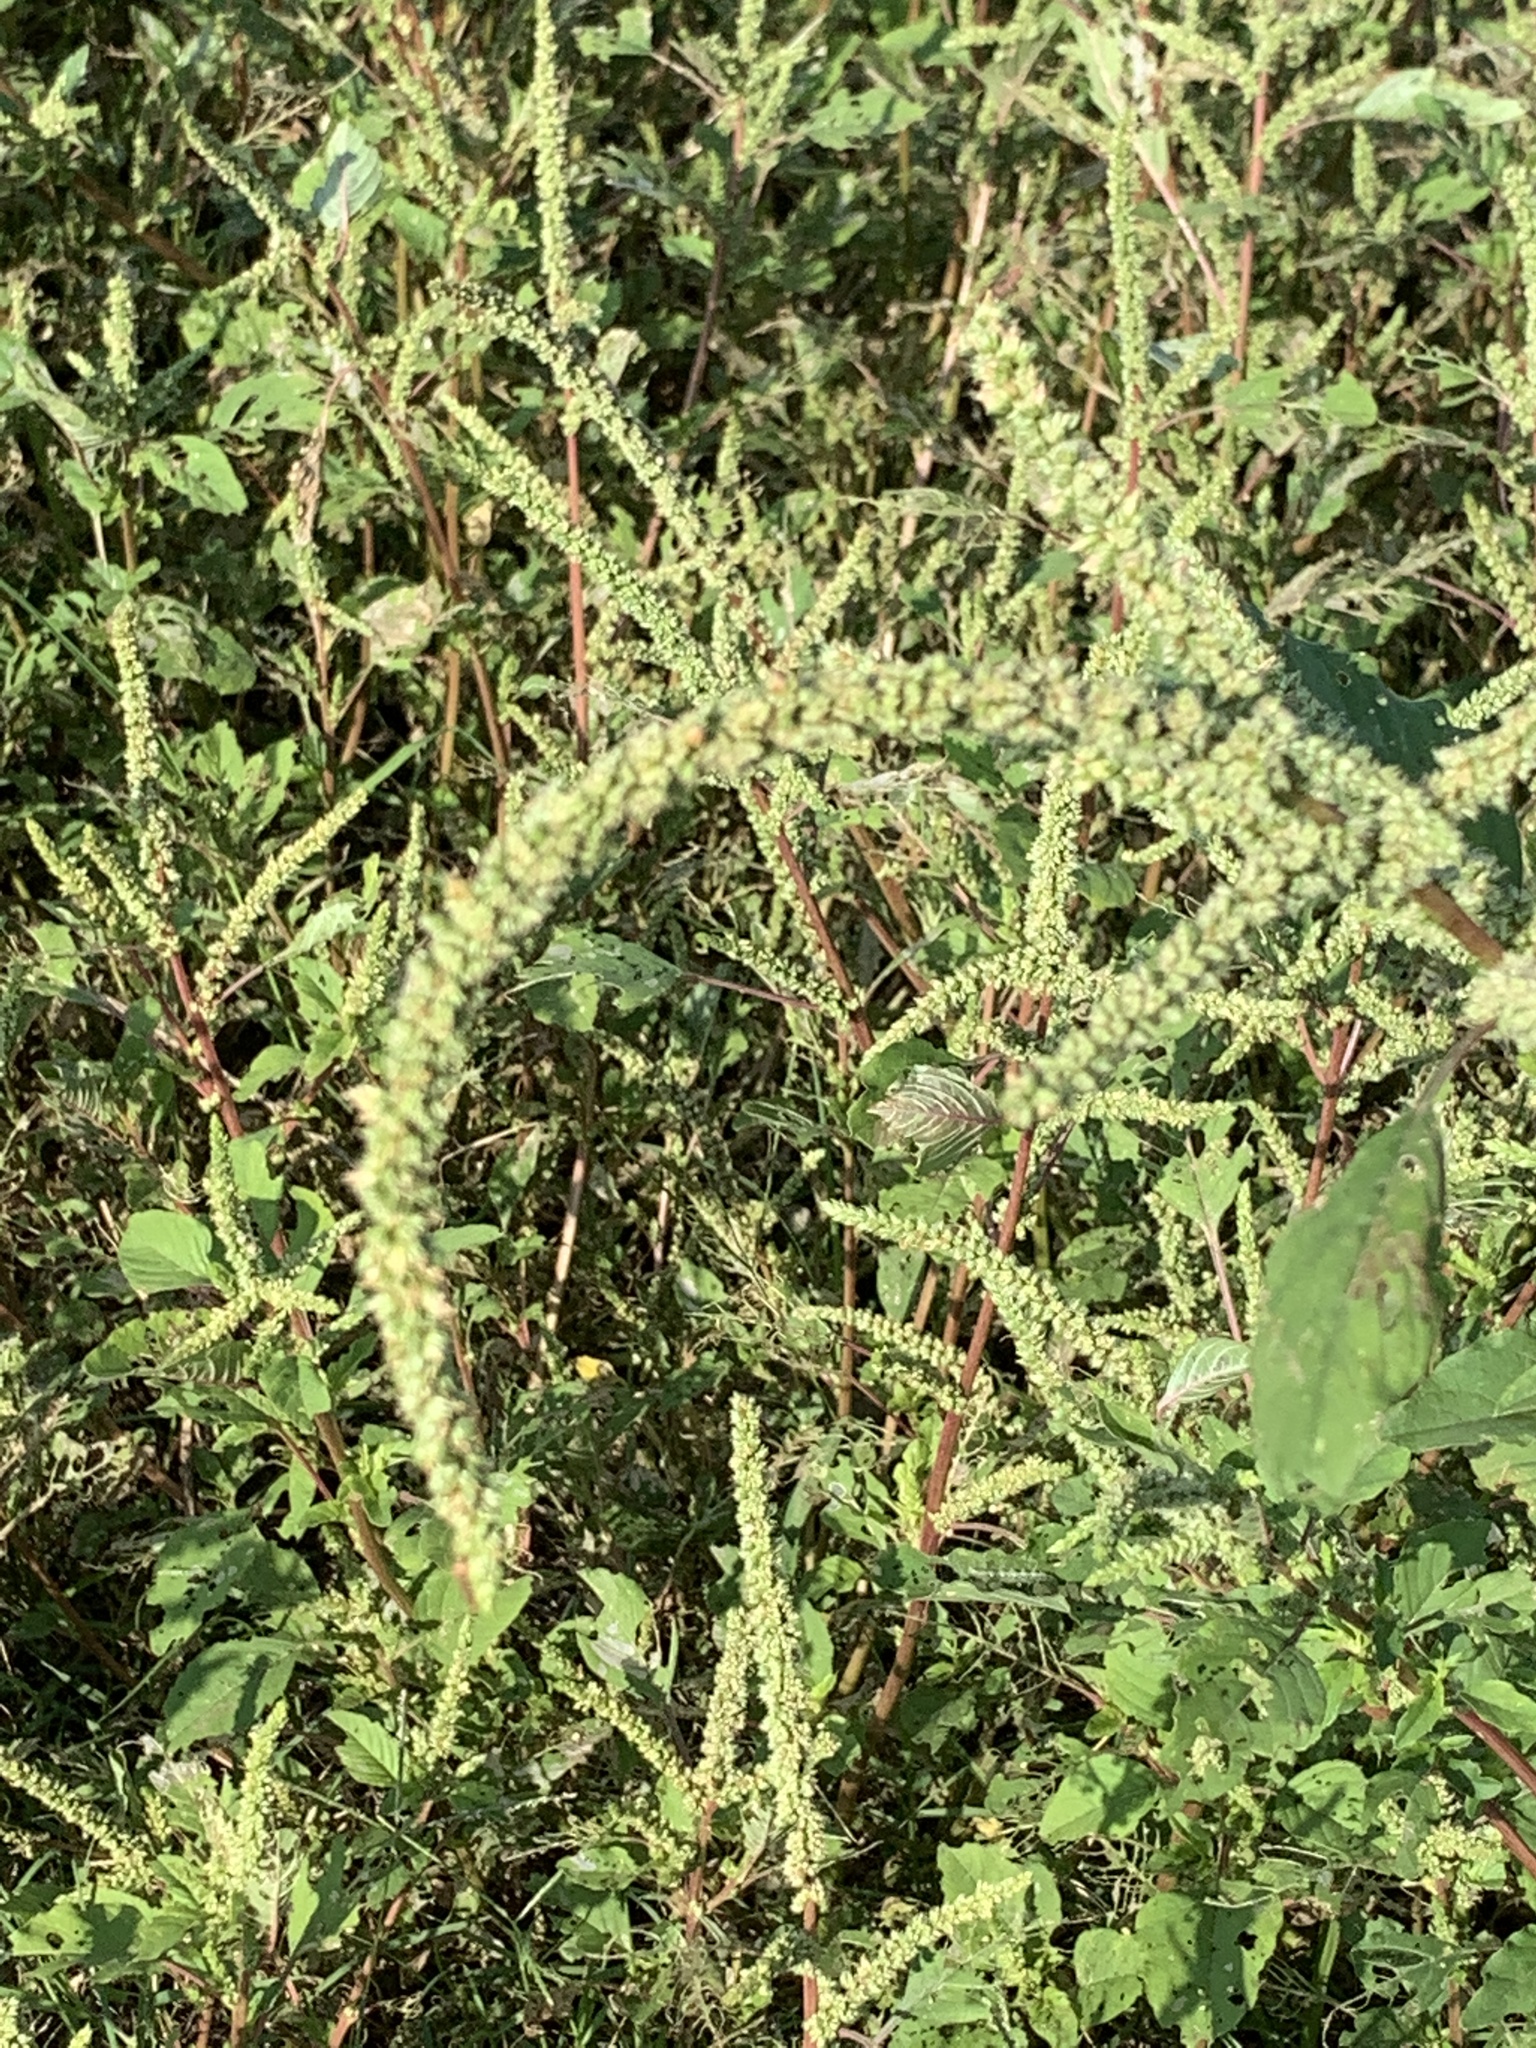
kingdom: Plantae
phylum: Tracheophyta
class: Magnoliopsida
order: Caryophyllales
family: Amaranthaceae
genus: Amaranthus
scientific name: Amaranthus spinosus
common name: Spiny amaranth
